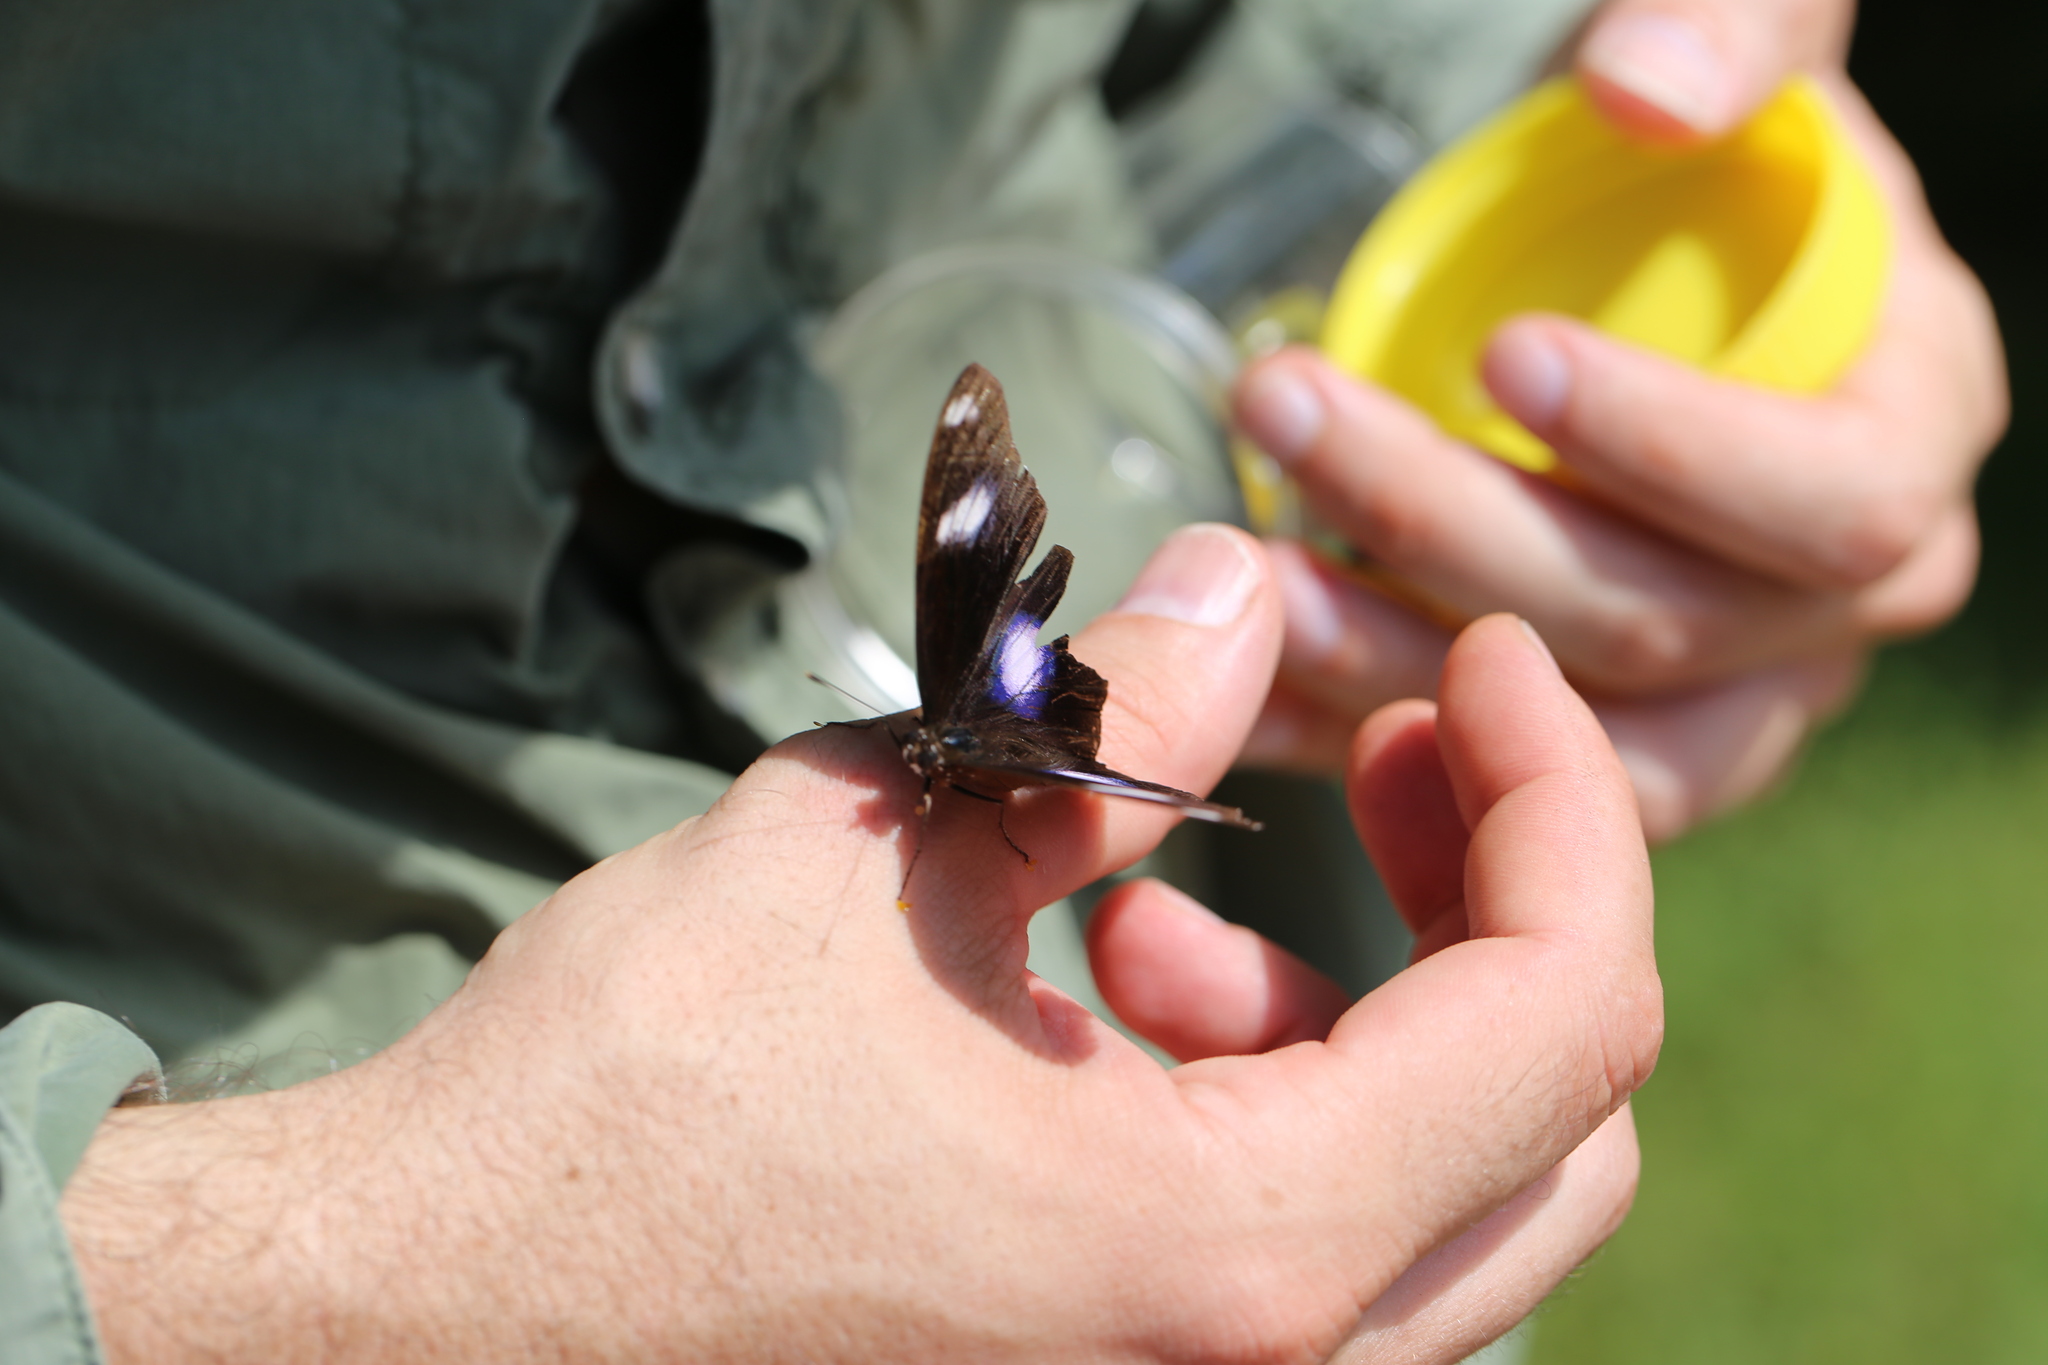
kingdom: Animalia
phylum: Arthropoda
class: Insecta
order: Lepidoptera
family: Nymphalidae
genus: Hypolimnas
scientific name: Hypolimnas bolina
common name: Great eggfly
